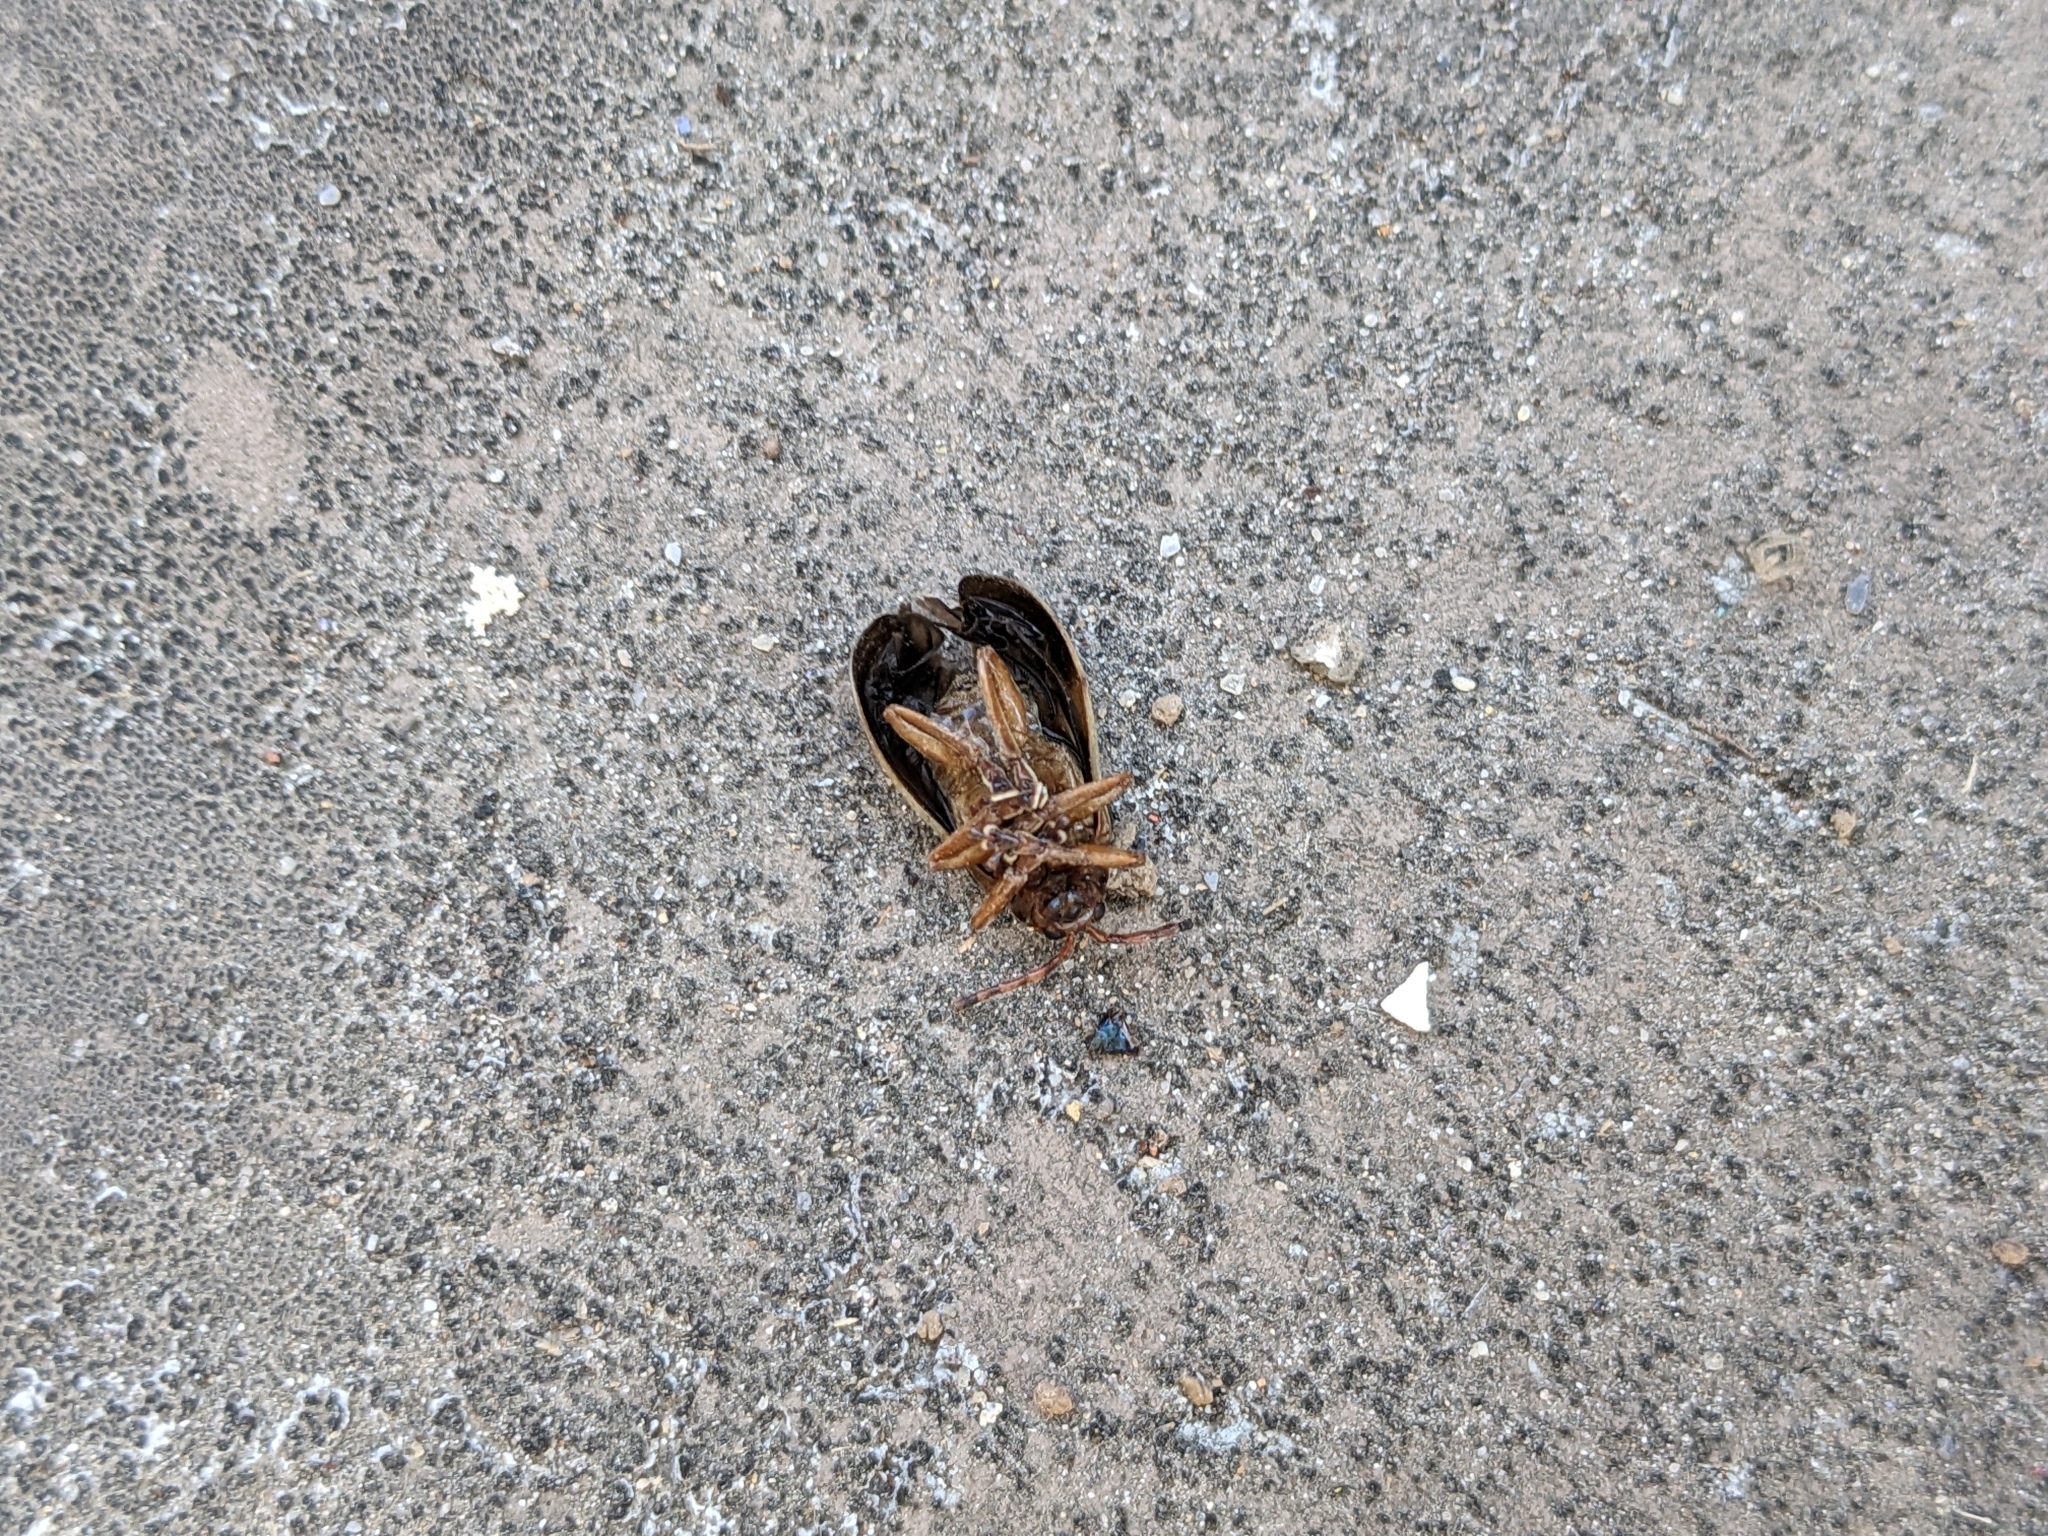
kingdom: Animalia
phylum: Arthropoda
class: Insecta
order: Coleoptera
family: Chrysomelidae
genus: Monocesta
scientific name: Monocesta coryli
